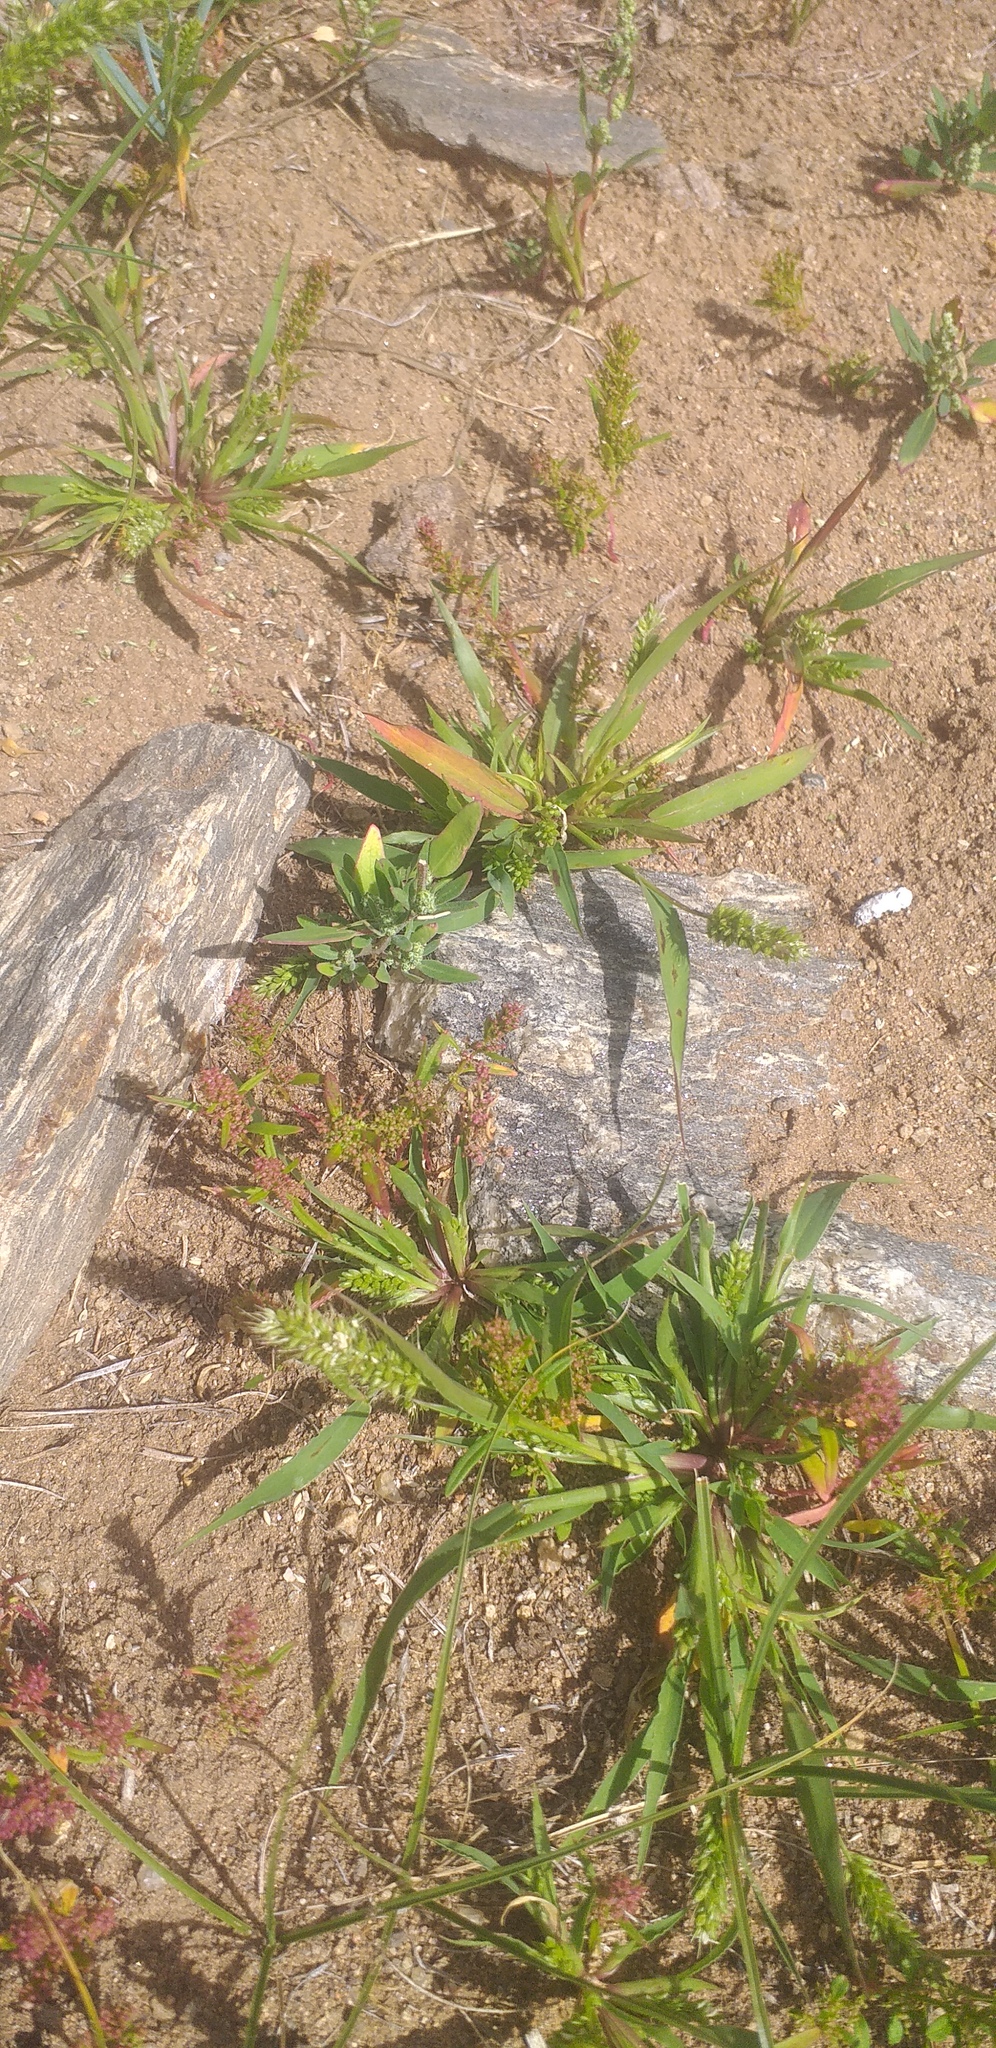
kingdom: Plantae
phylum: Tracheophyta
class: Liliopsida
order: Poales
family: Poaceae
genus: Setaria
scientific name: Setaria viridis
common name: Green bristlegrass
